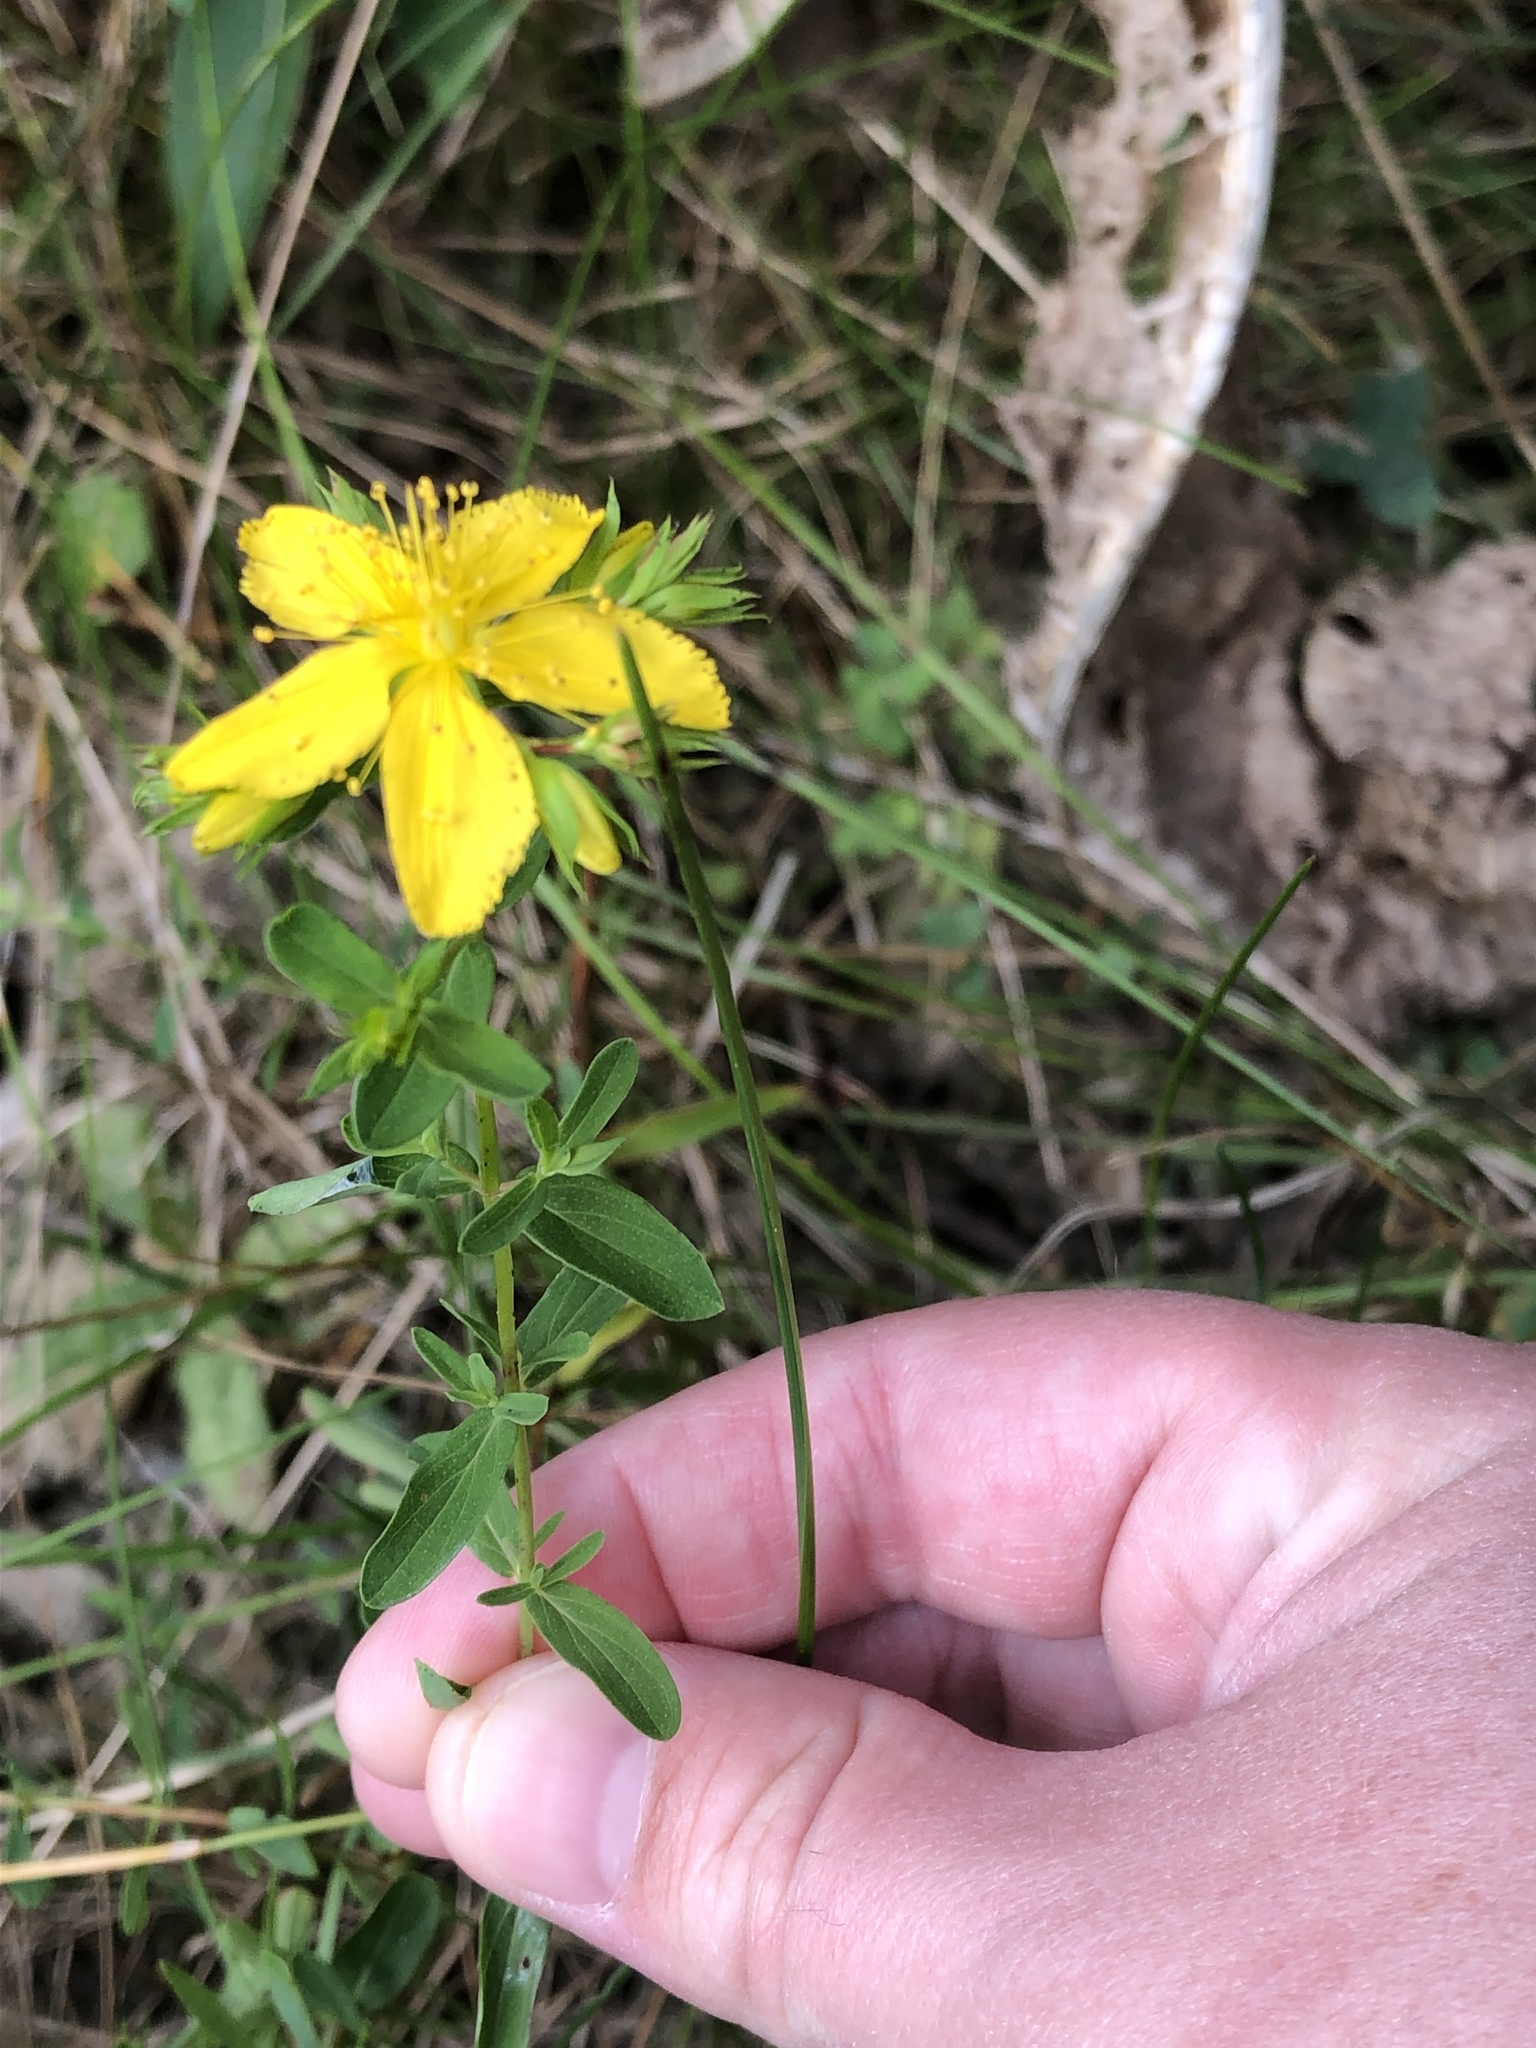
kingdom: Plantae
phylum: Tracheophyta
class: Magnoliopsida
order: Malpighiales
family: Hypericaceae
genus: Hypericum
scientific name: Hypericum perforatum
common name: Common st. johnswort
